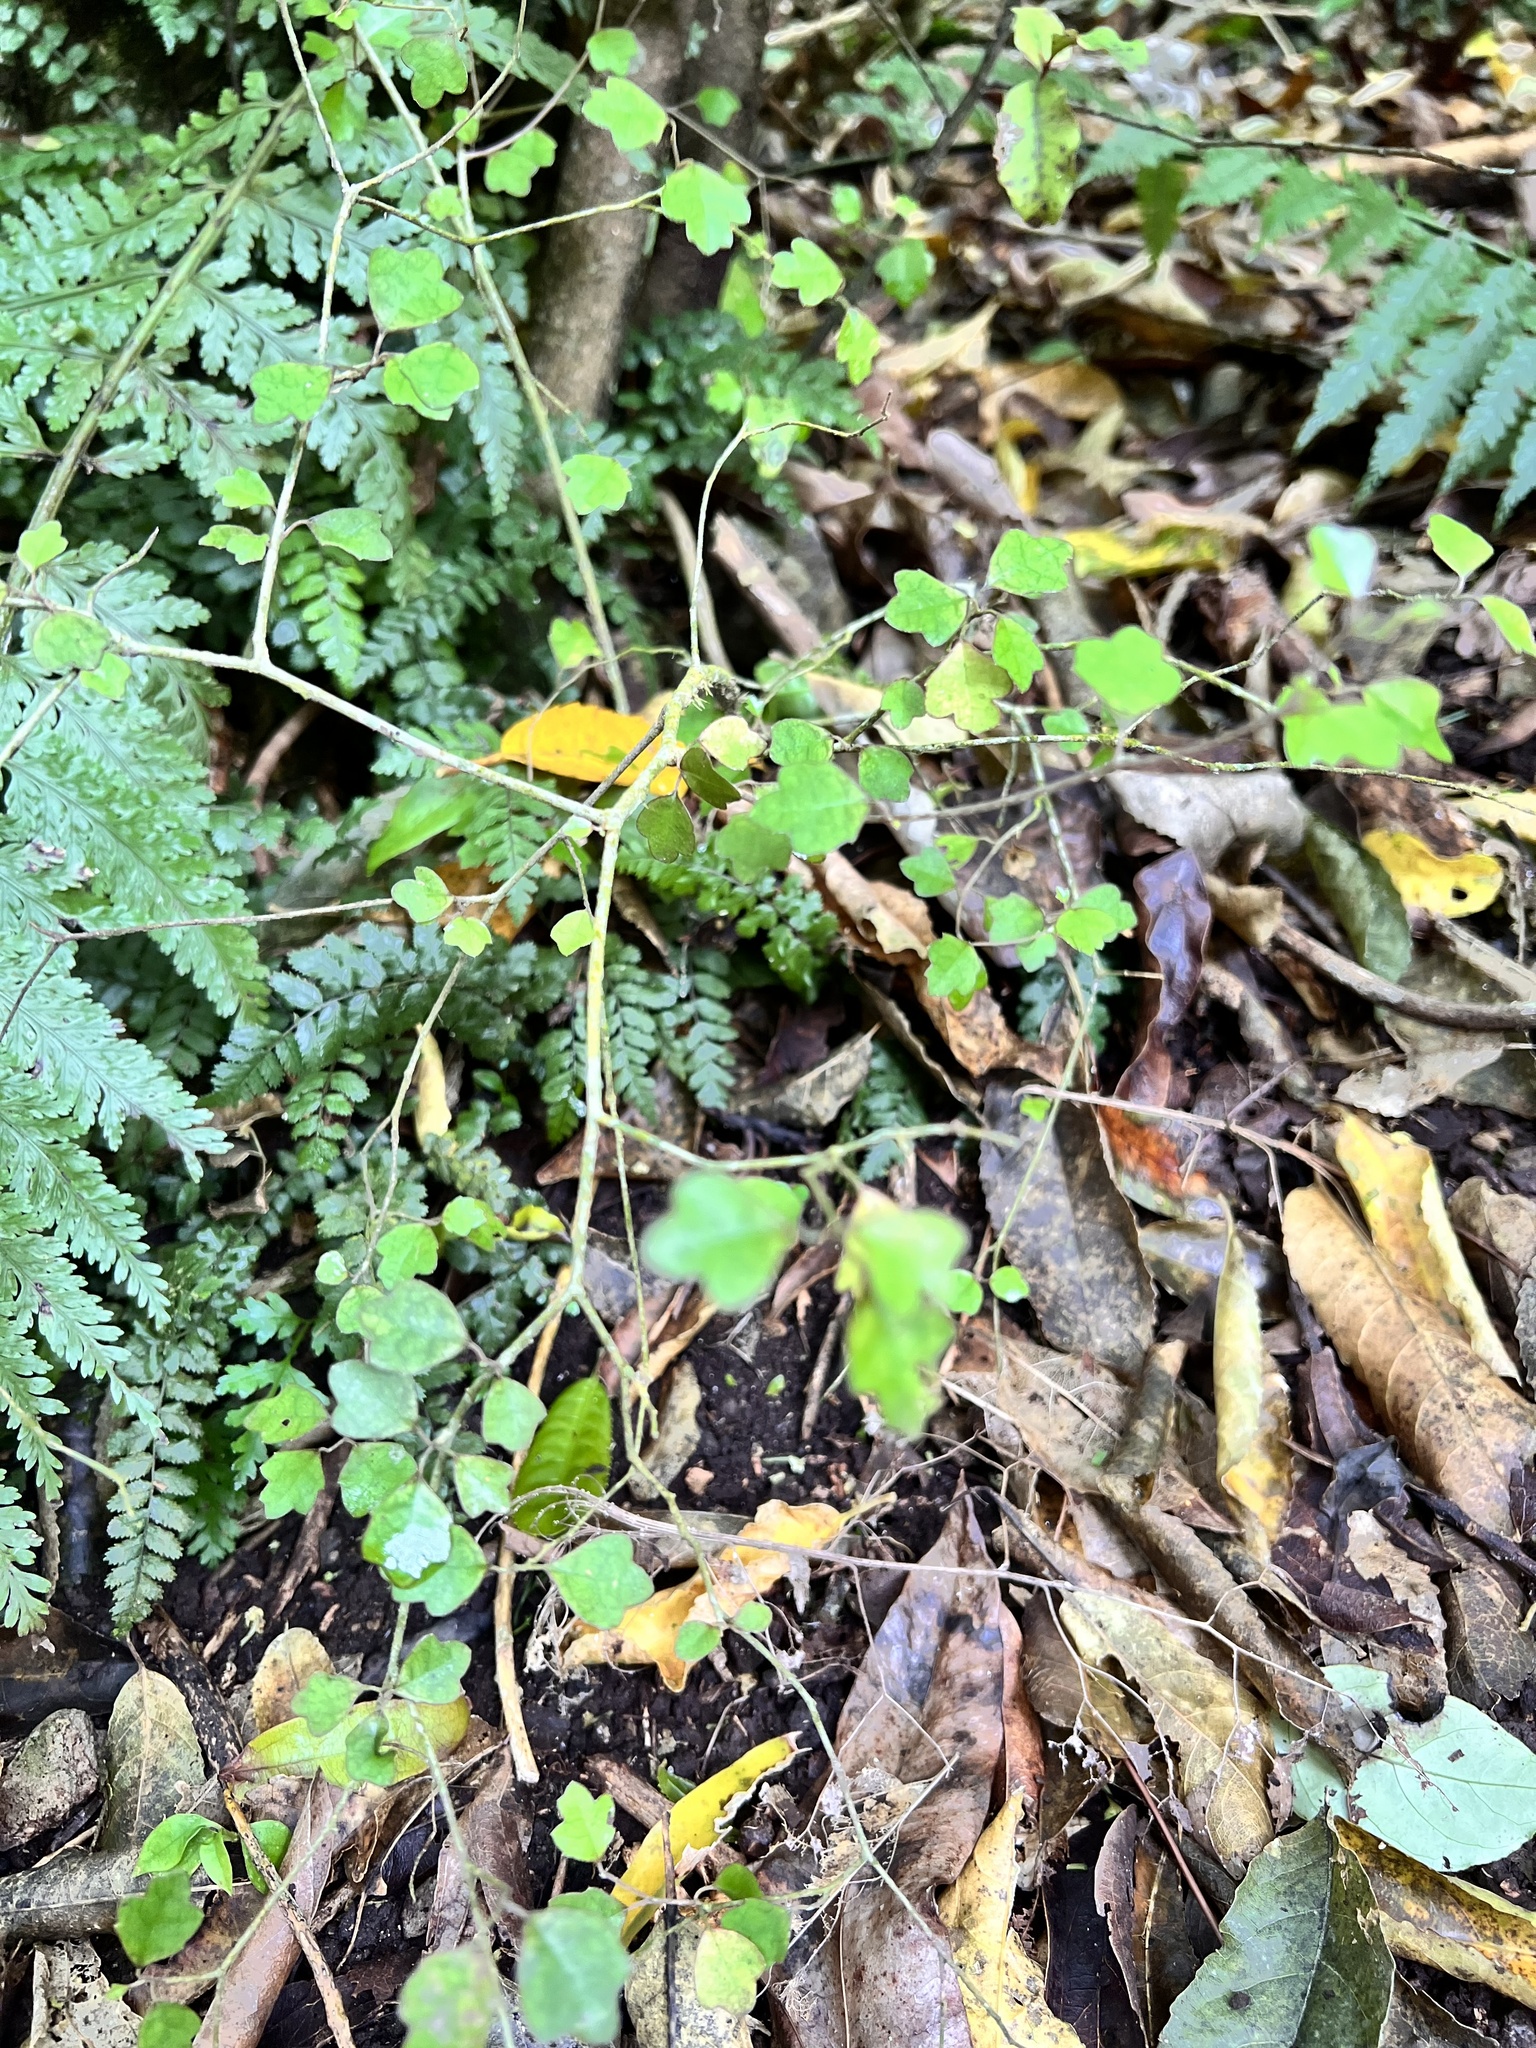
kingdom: Plantae
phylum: Tracheophyta
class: Magnoliopsida
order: Apiales
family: Pennantiaceae
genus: Pennantia
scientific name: Pennantia corymbosa
